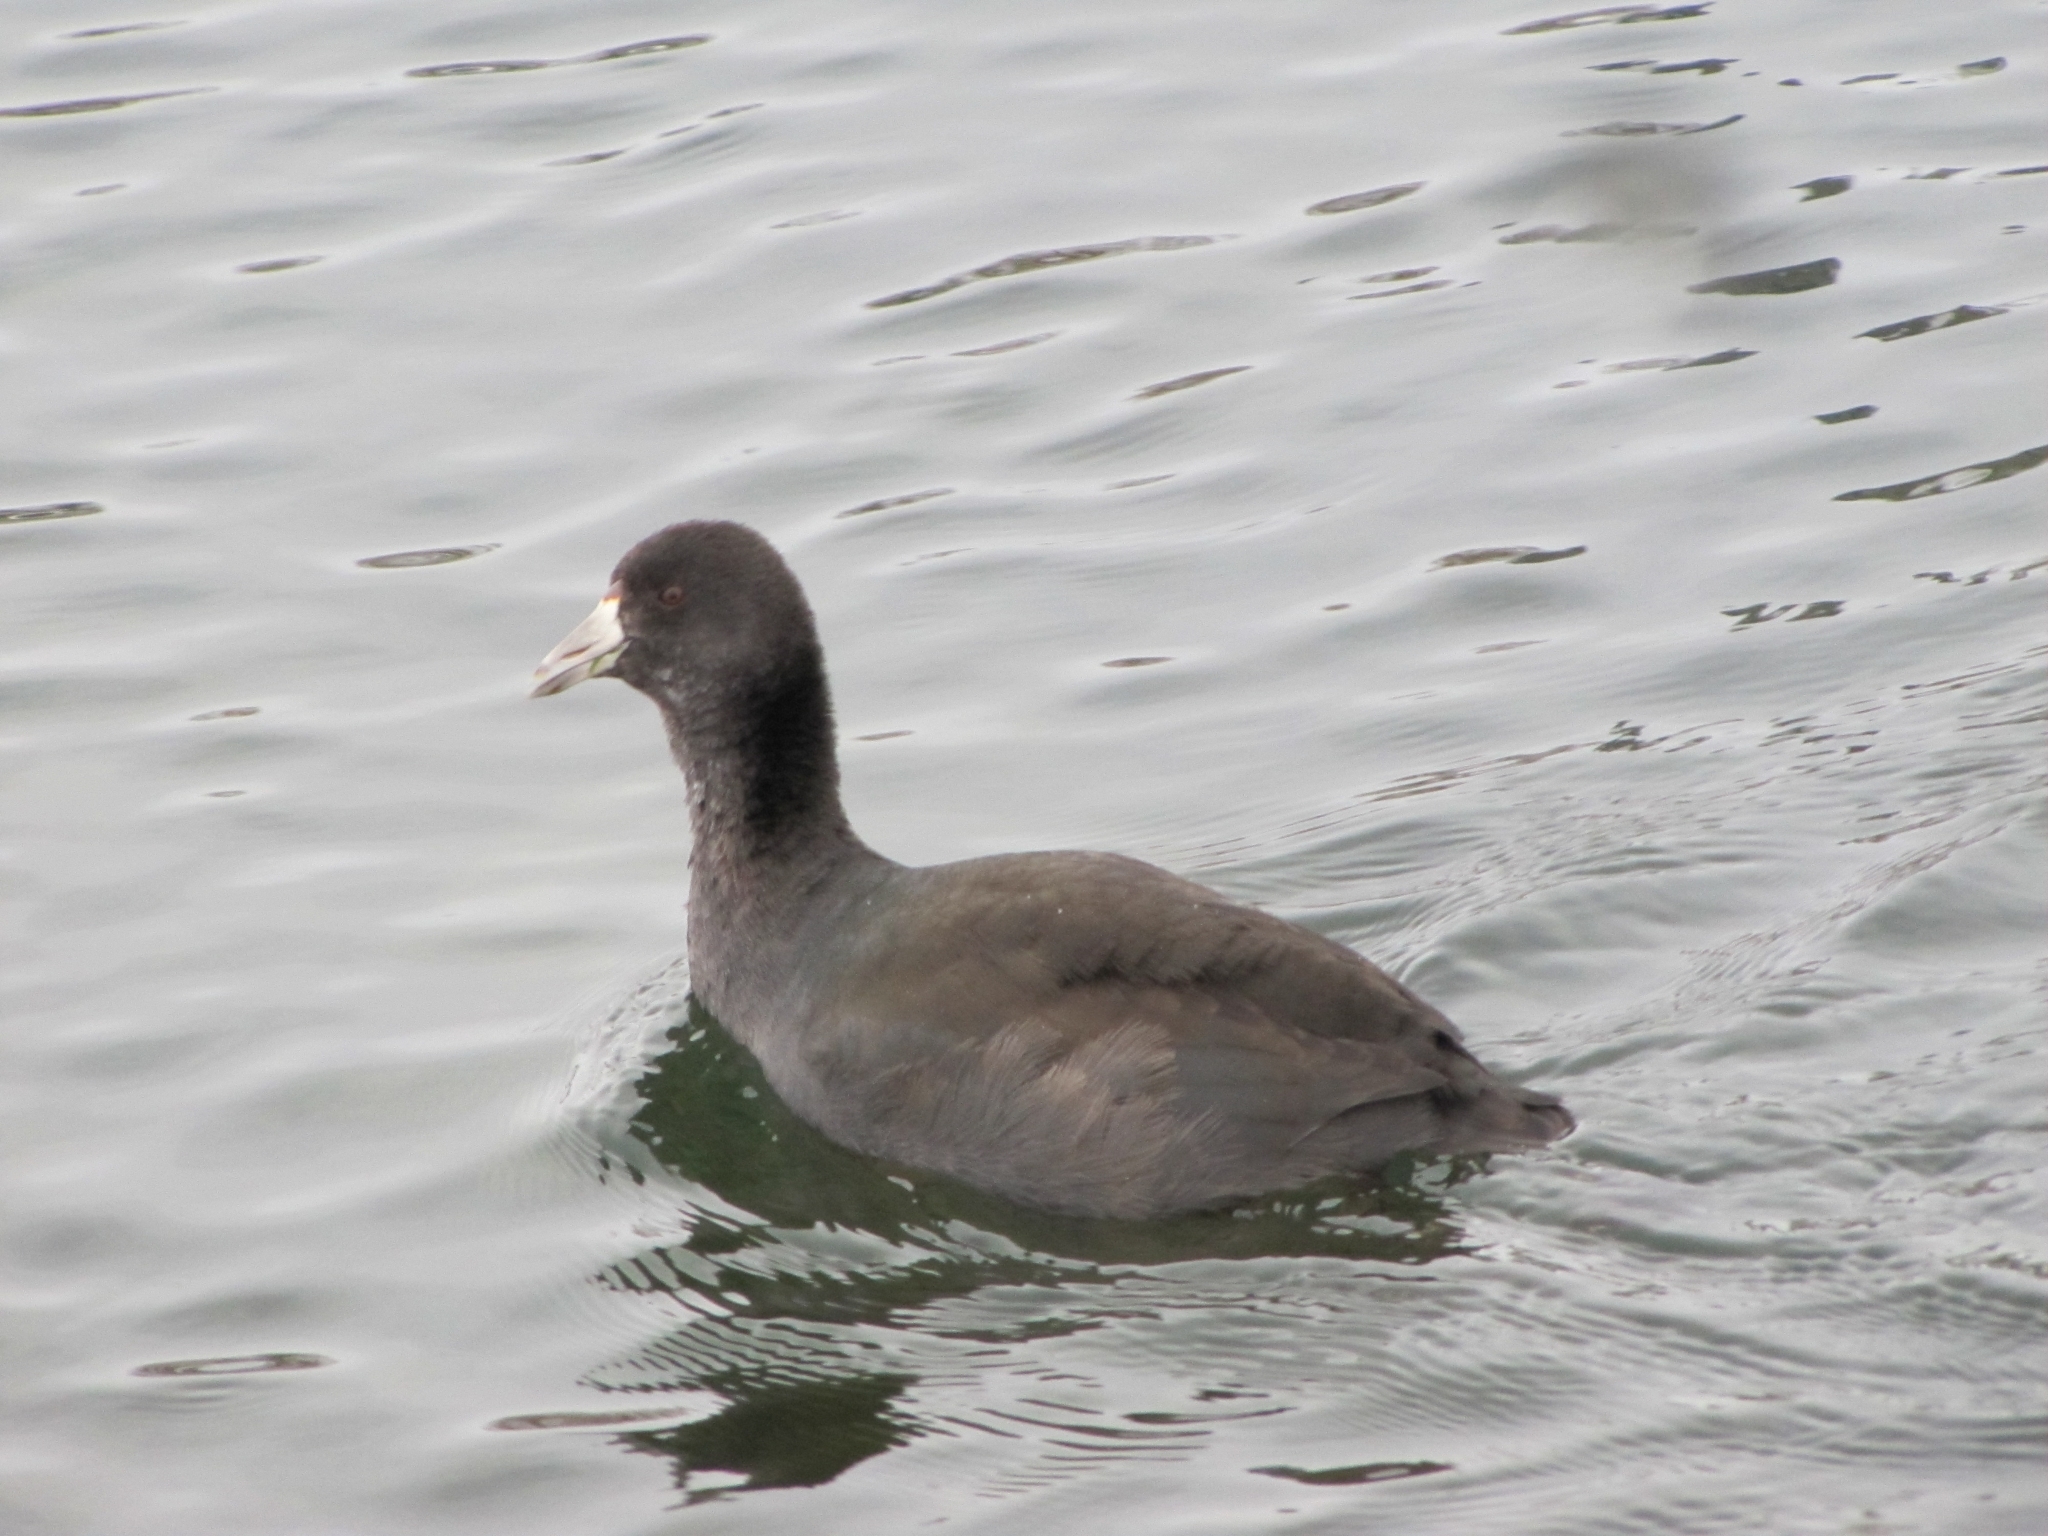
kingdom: Animalia
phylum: Chordata
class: Aves
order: Gruiformes
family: Rallidae
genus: Fulica
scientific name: Fulica americana
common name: American coot
